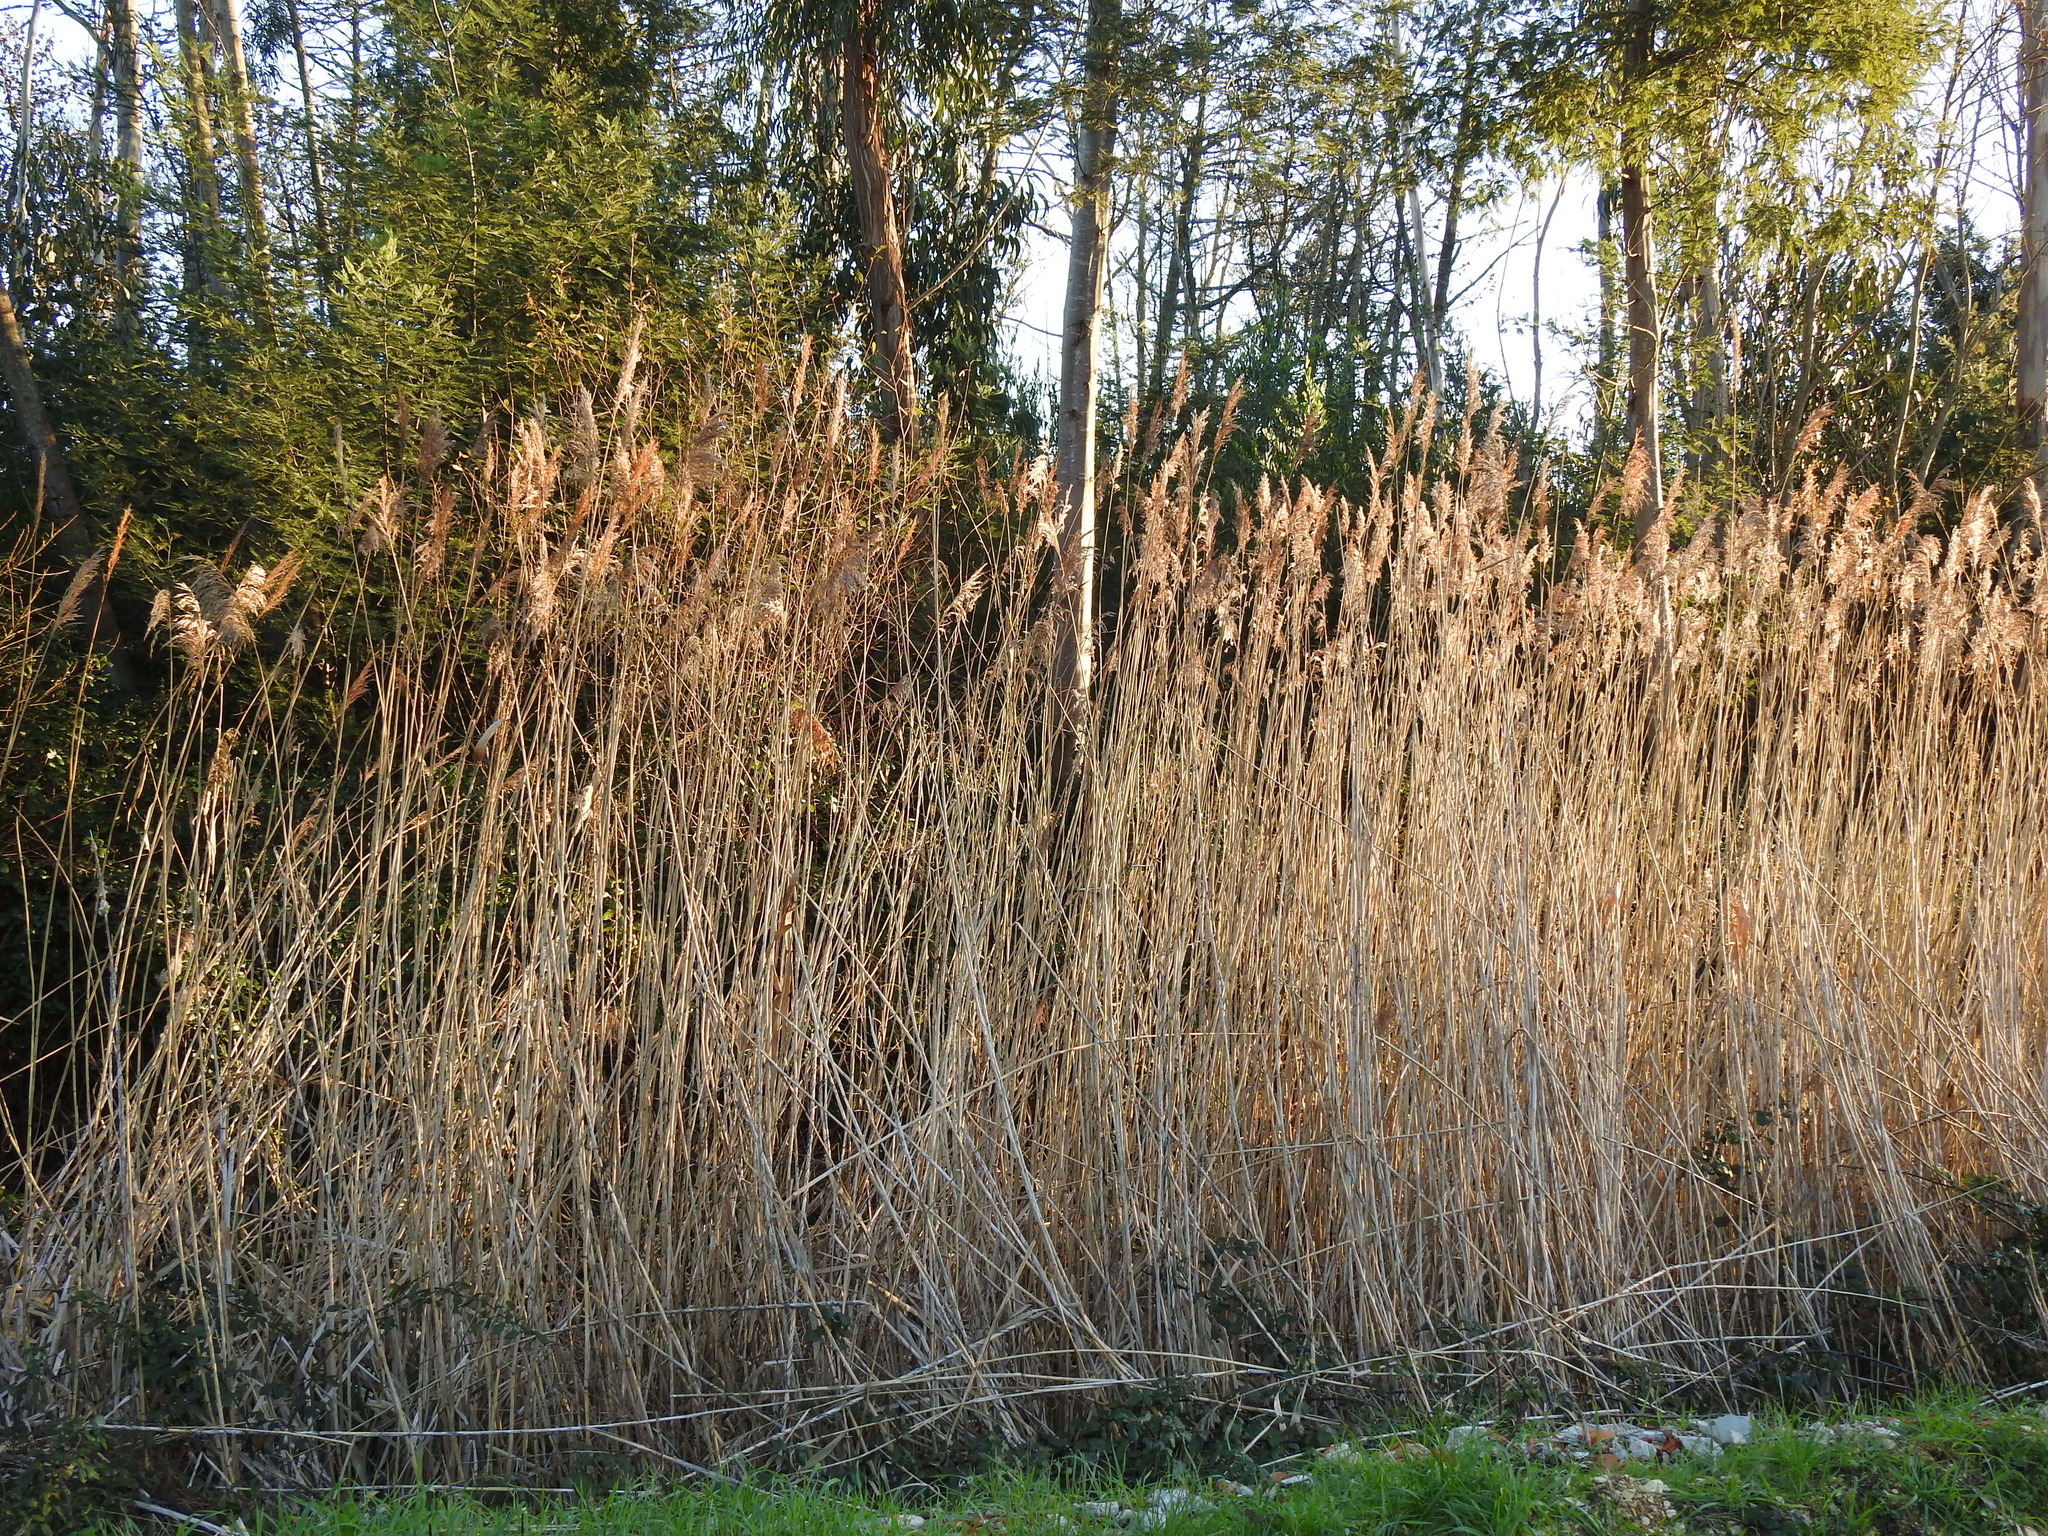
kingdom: Plantae
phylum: Tracheophyta
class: Liliopsida
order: Poales
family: Poaceae
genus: Phragmites
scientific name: Phragmites australis
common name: Common reed
